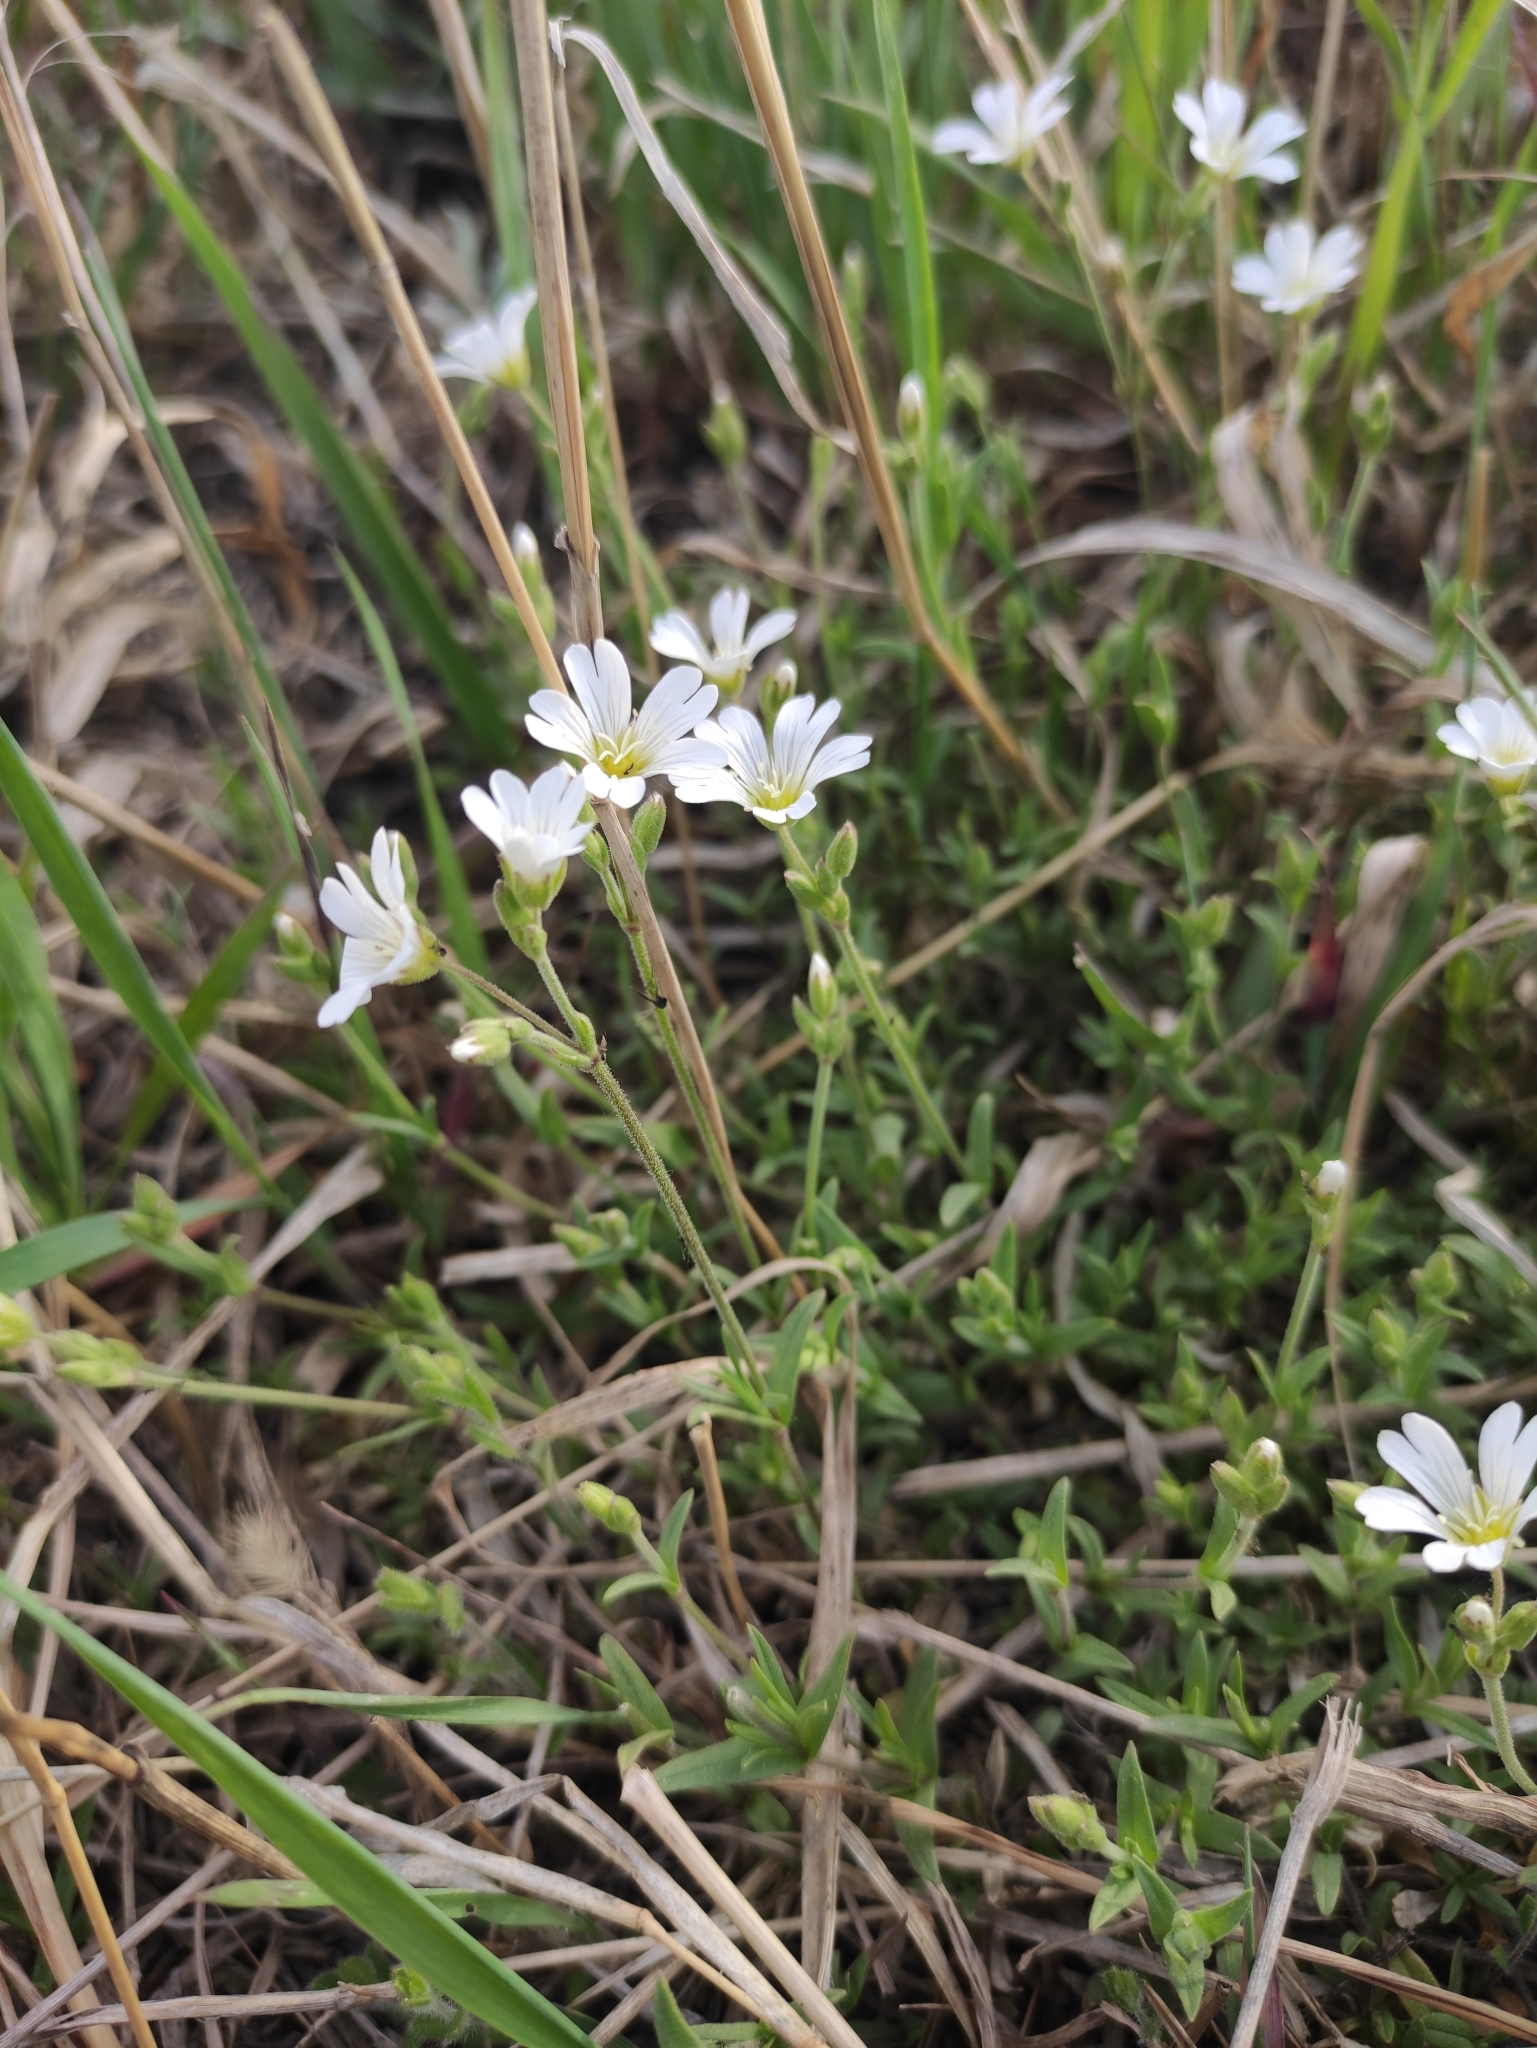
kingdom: Plantae
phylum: Tracheophyta
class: Magnoliopsida
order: Caryophyllales
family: Caryophyllaceae
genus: Cerastium
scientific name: Cerastium arvense
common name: Field mouse-ear
